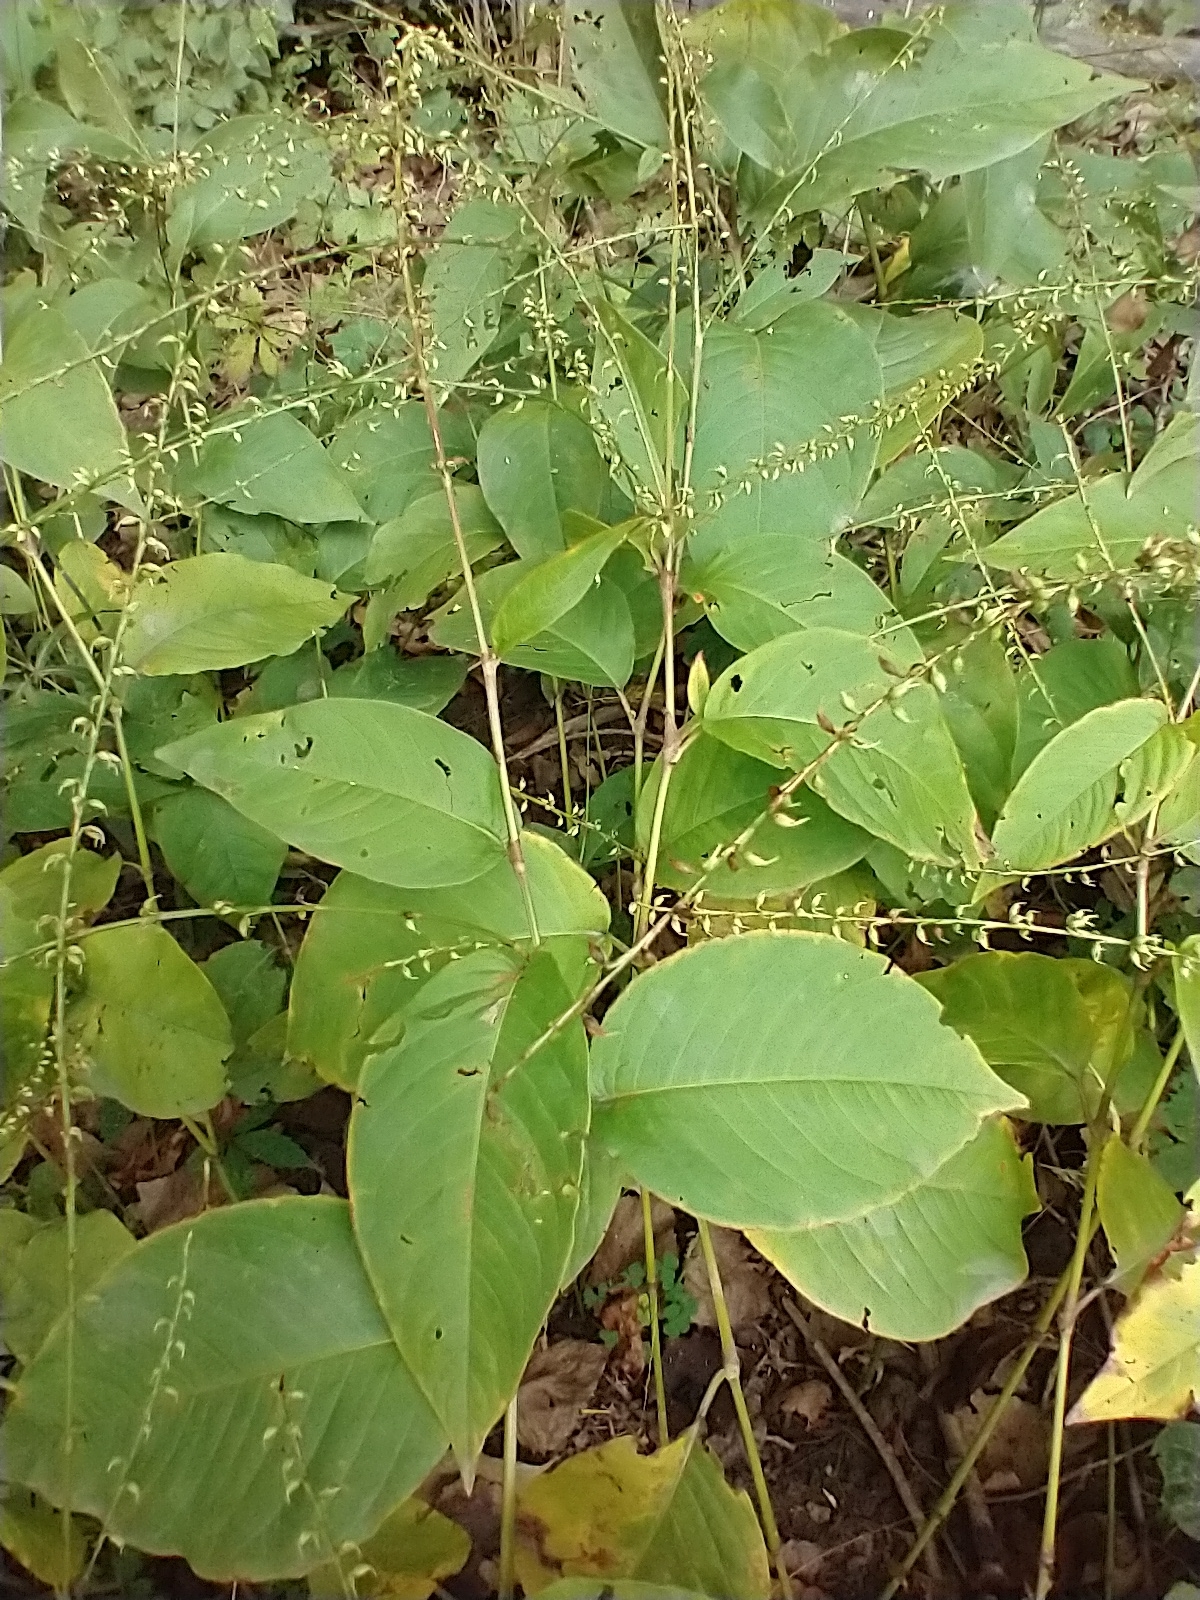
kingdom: Plantae
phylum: Tracheophyta
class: Magnoliopsida
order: Caryophyllales
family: Polygonaceae
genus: Persicaria
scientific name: Persicaria virginiana
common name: Jumpseed
